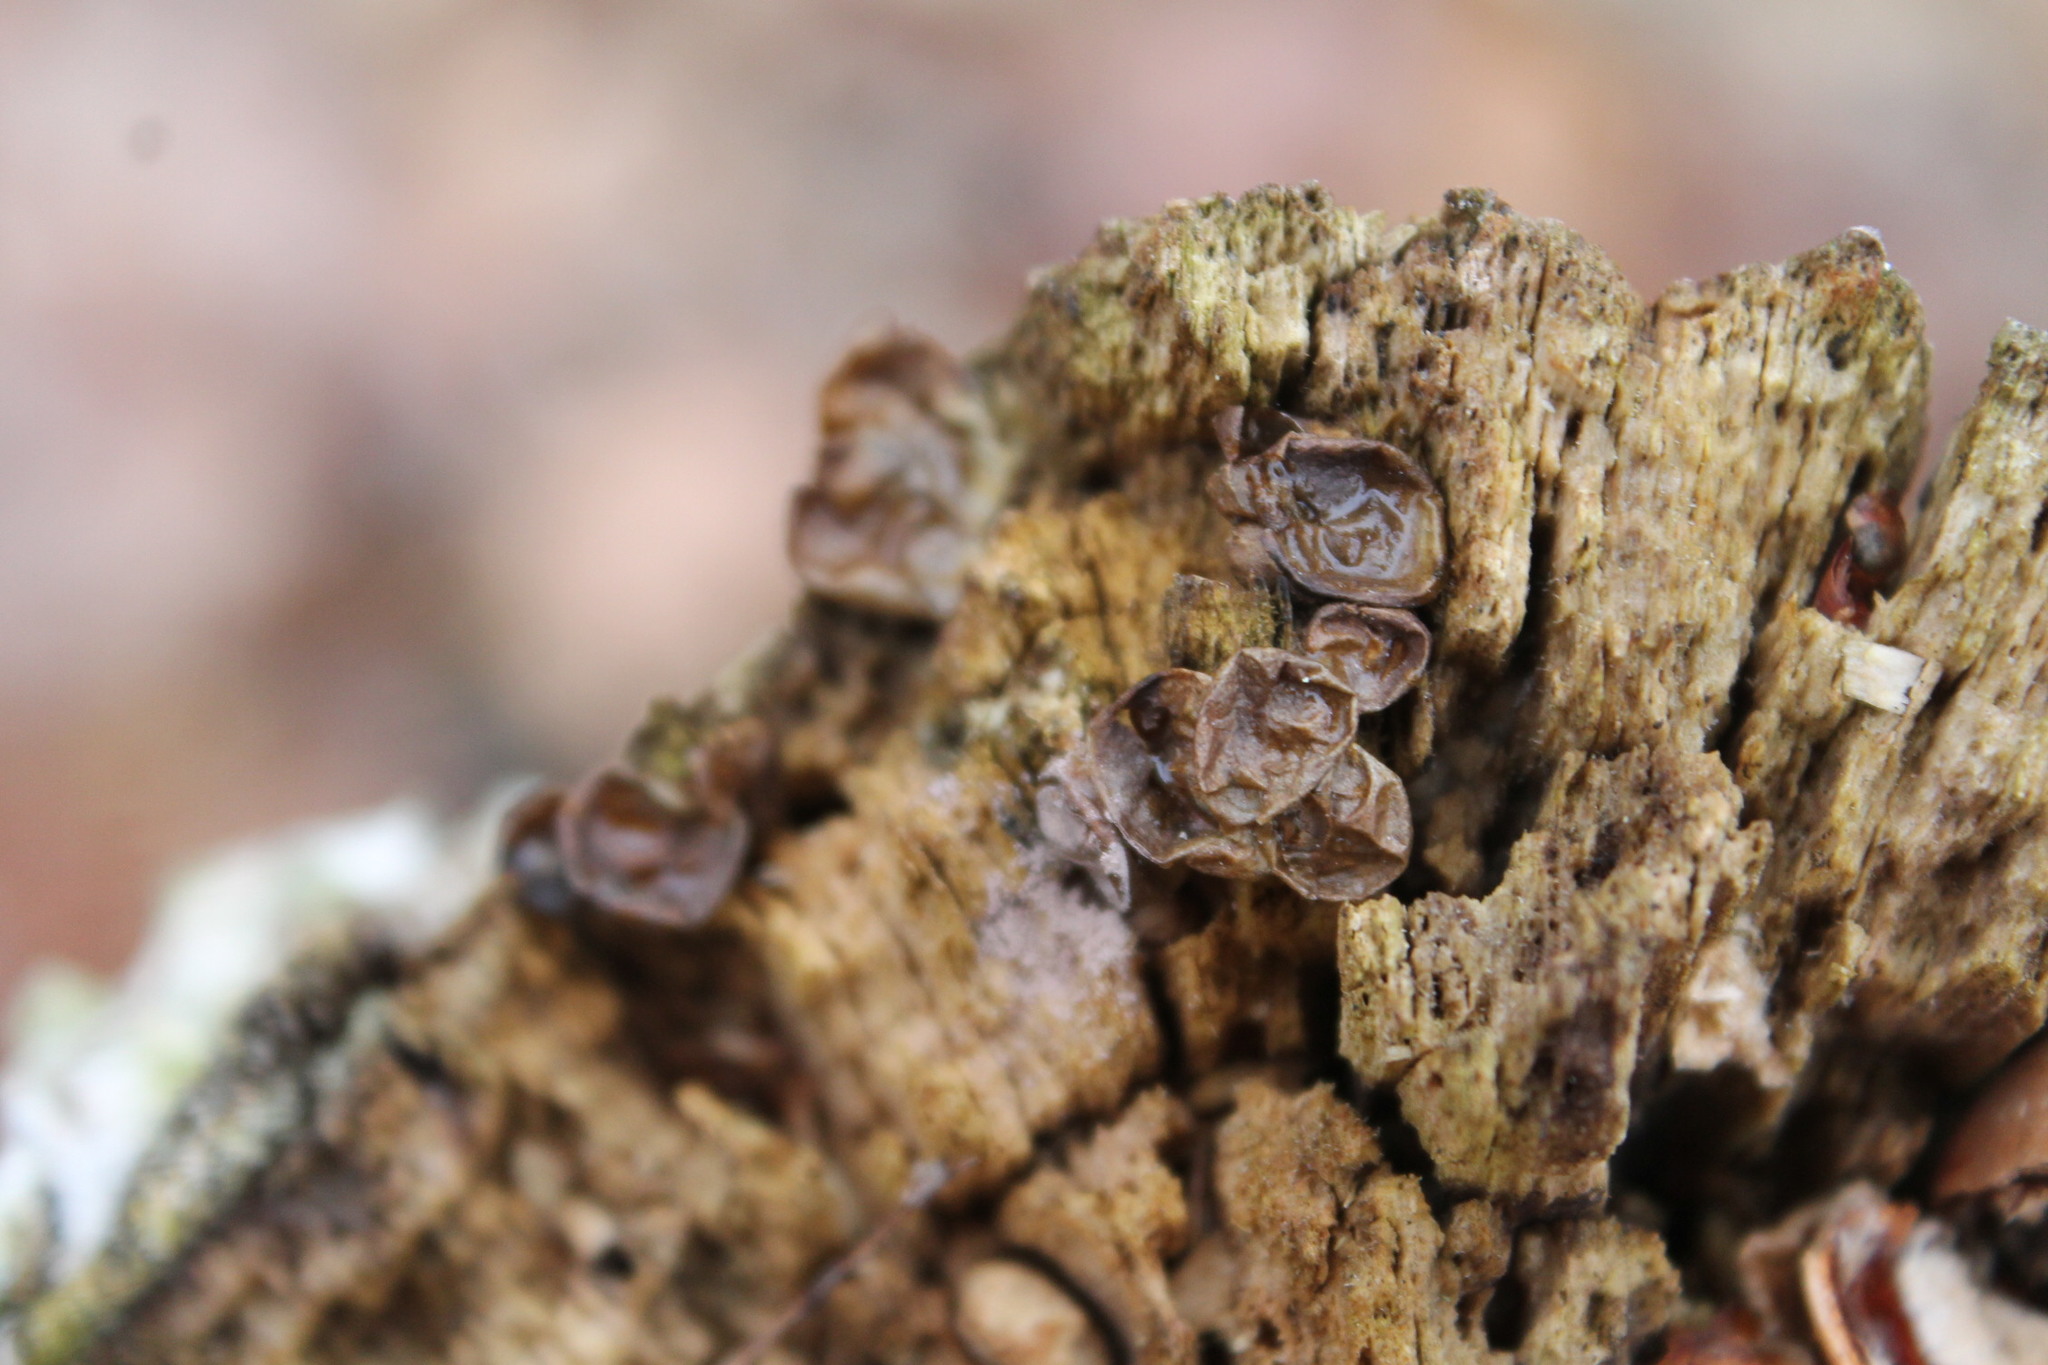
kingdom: Protozoa
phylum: Mycetozoa
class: Myxomycetes
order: Cribrariales
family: Tubiferaceae
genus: Lycogala
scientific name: Lycogala epidendrum
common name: Wolf's milk
